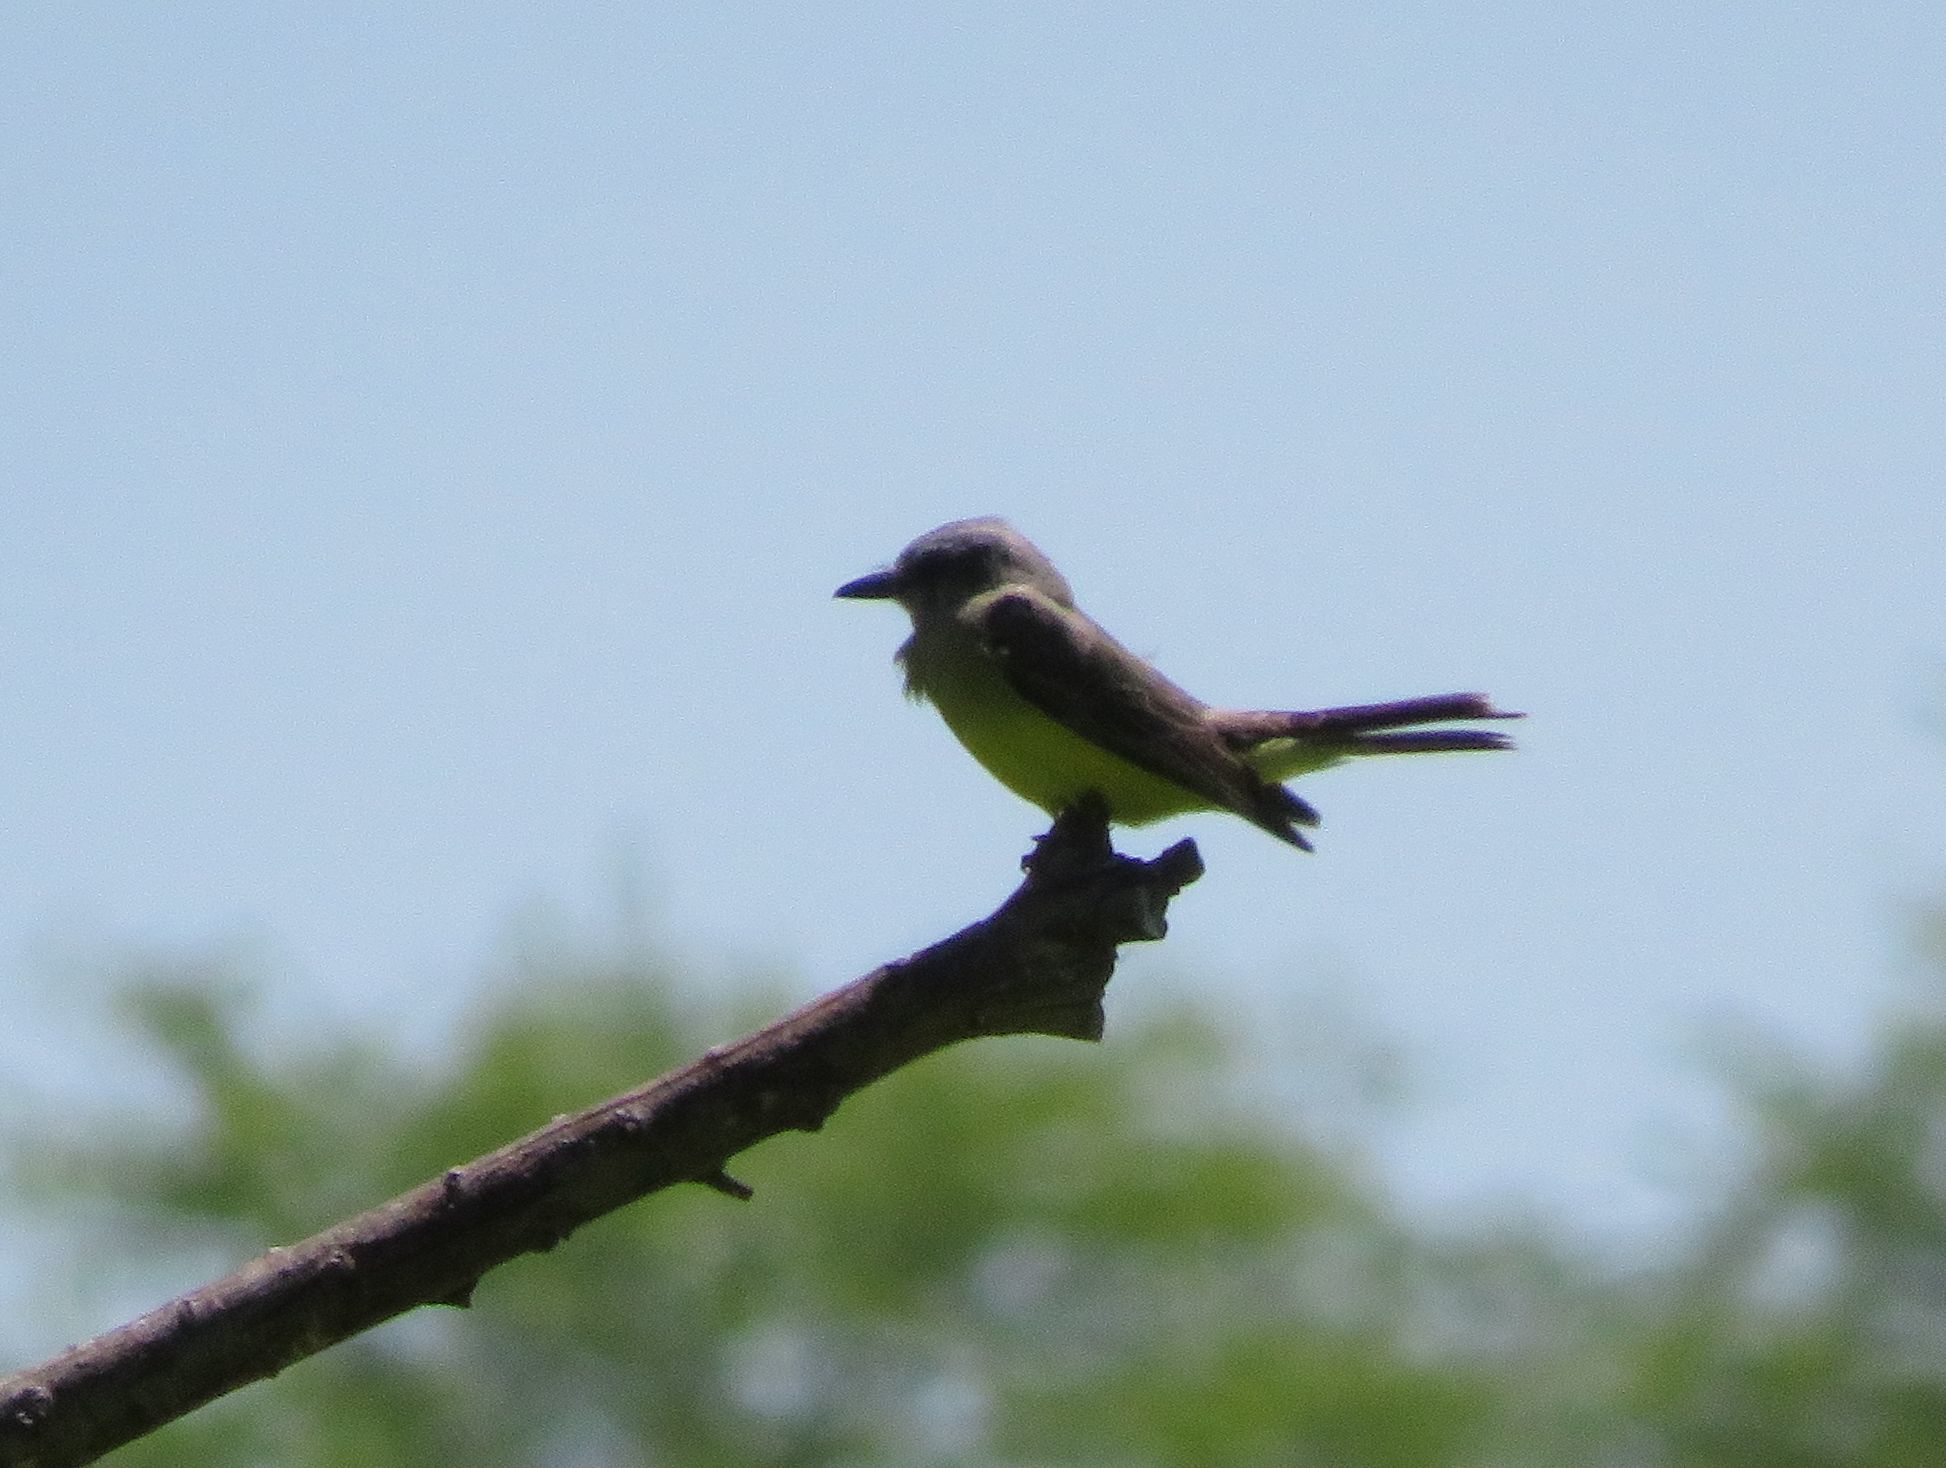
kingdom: Animalia
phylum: Chordata
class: Aves
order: Passeriformes
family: Tyrannidae
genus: Tyrannus
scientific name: Tyrannus melancholicus
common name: Tropical kingbird
